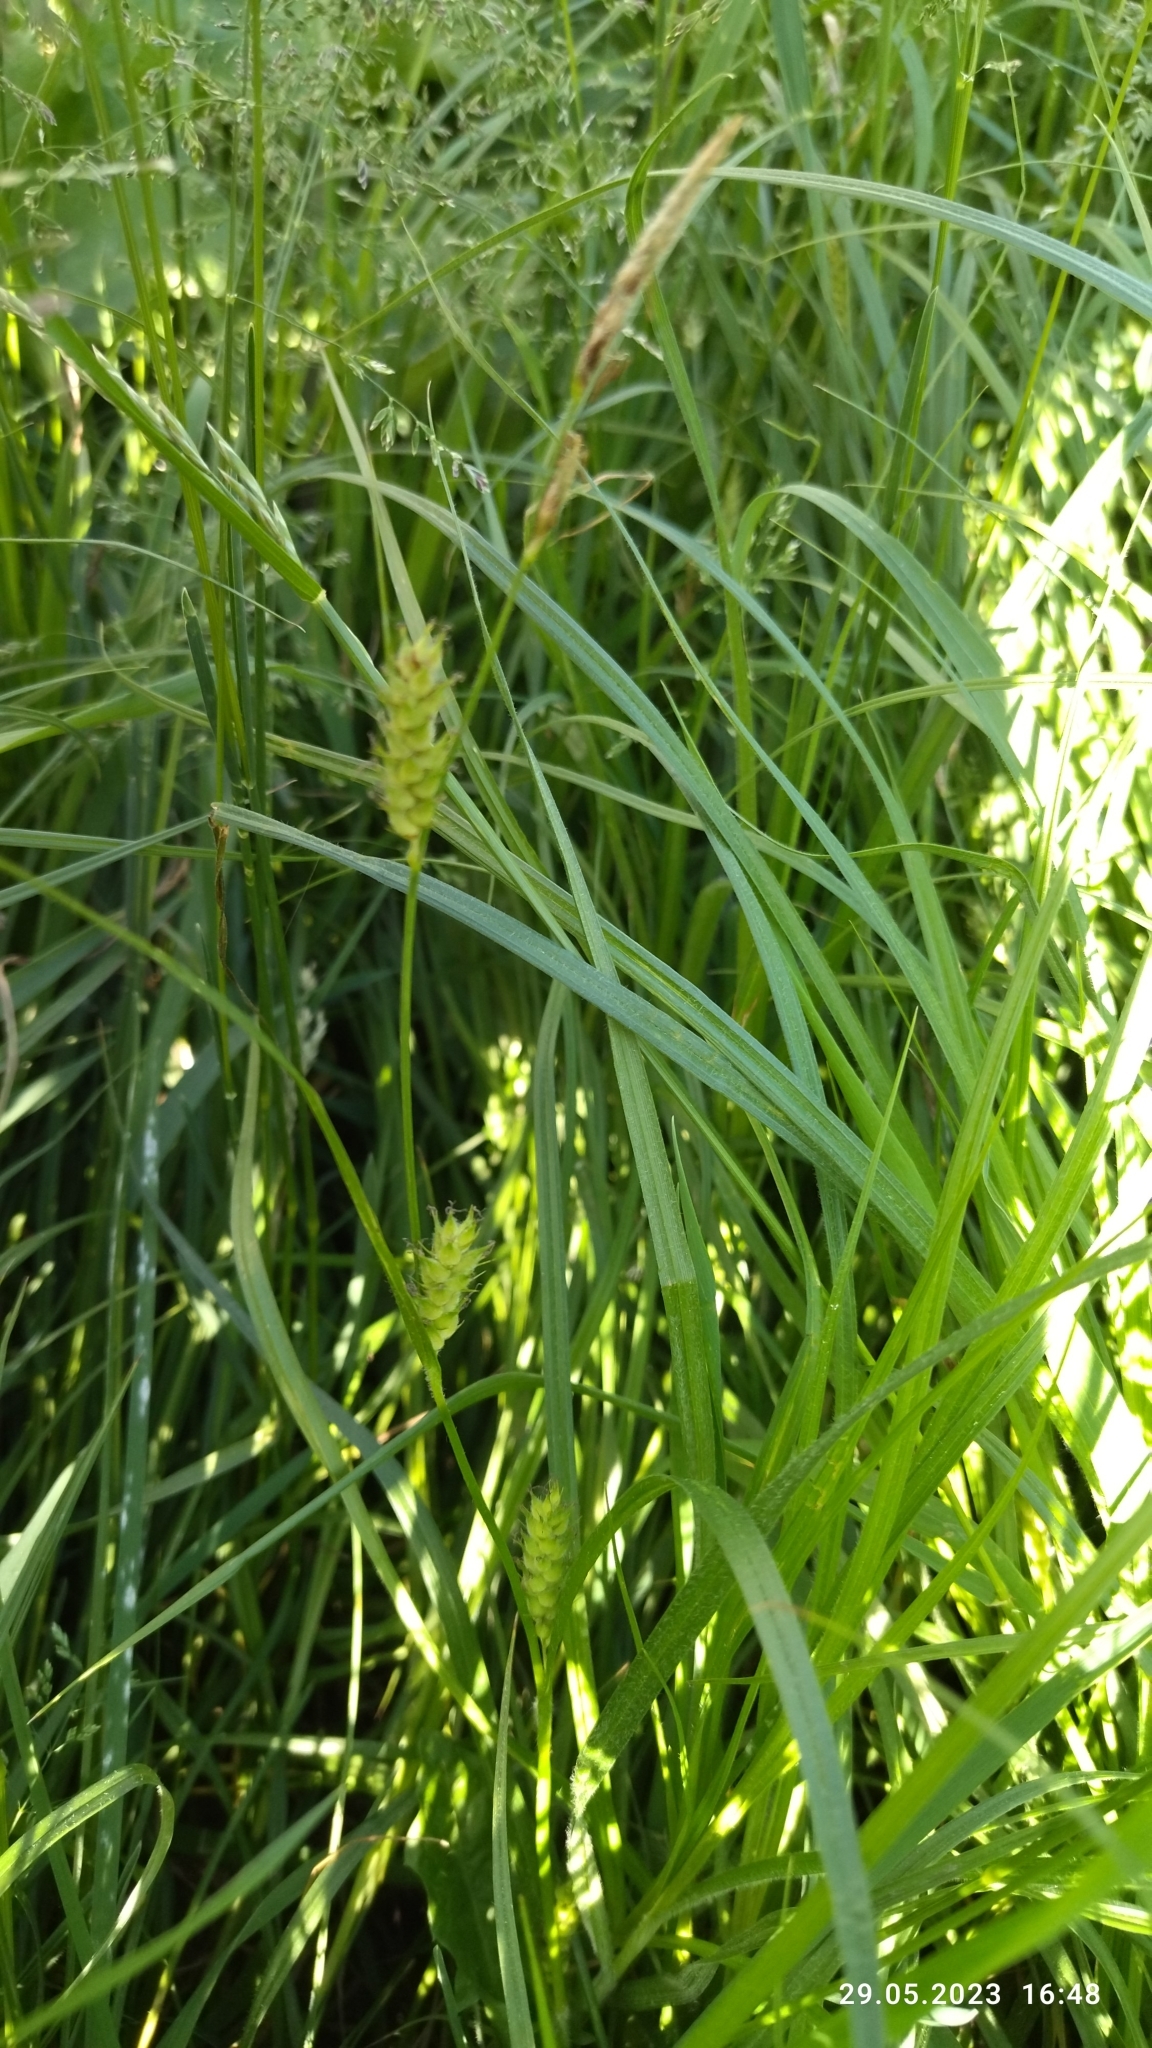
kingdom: Plantae
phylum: Tracheophyta
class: Liliopsida
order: Poales
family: Cyperaceae
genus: Carex
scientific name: Carex hirta
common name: Hairy sedge
